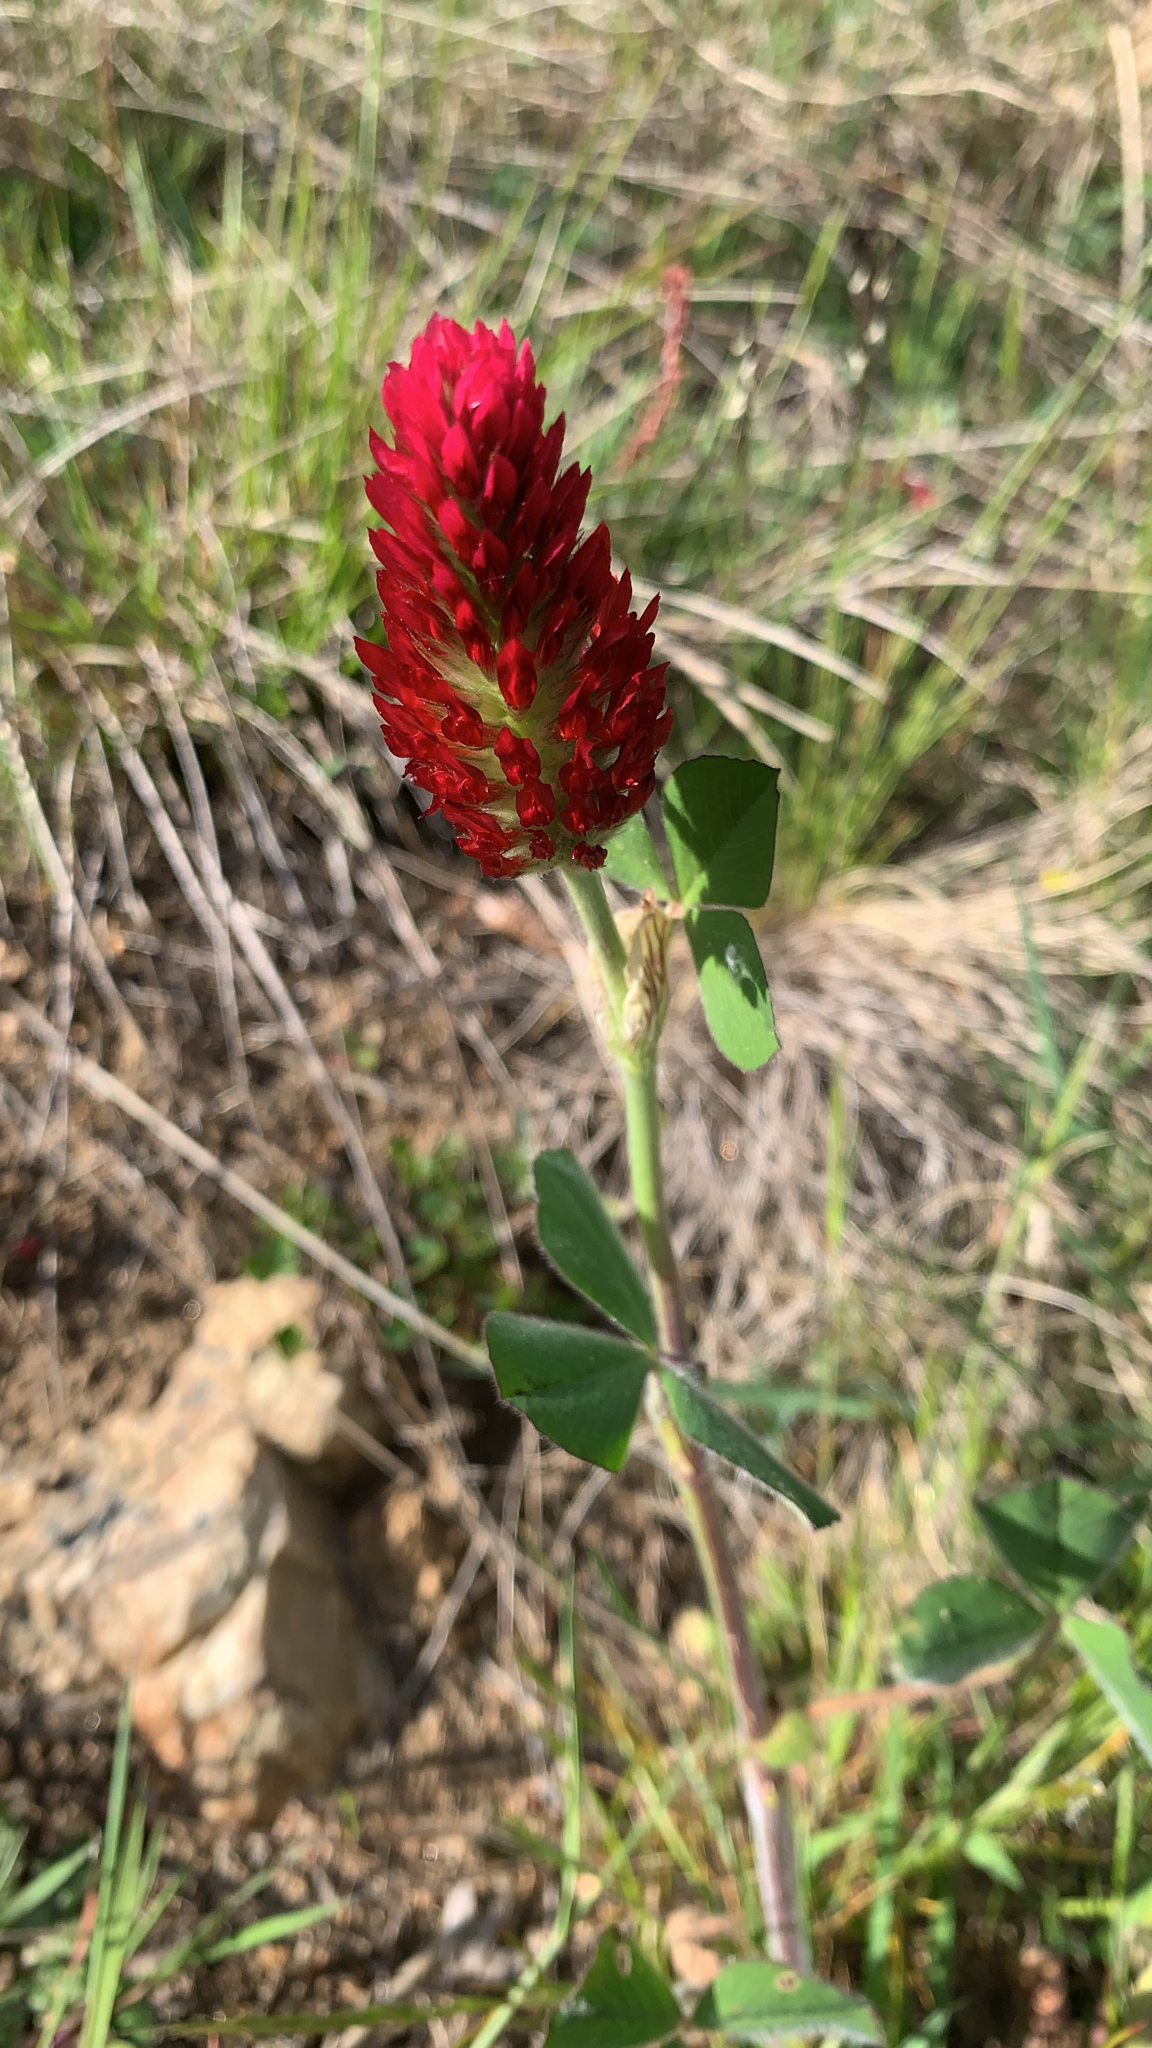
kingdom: Plantae
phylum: Tracheophyta
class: Magnoliopsida
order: Fabales
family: Fabaceae
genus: Trifolium
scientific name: Trifolium incarnatum
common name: Crimson clover
